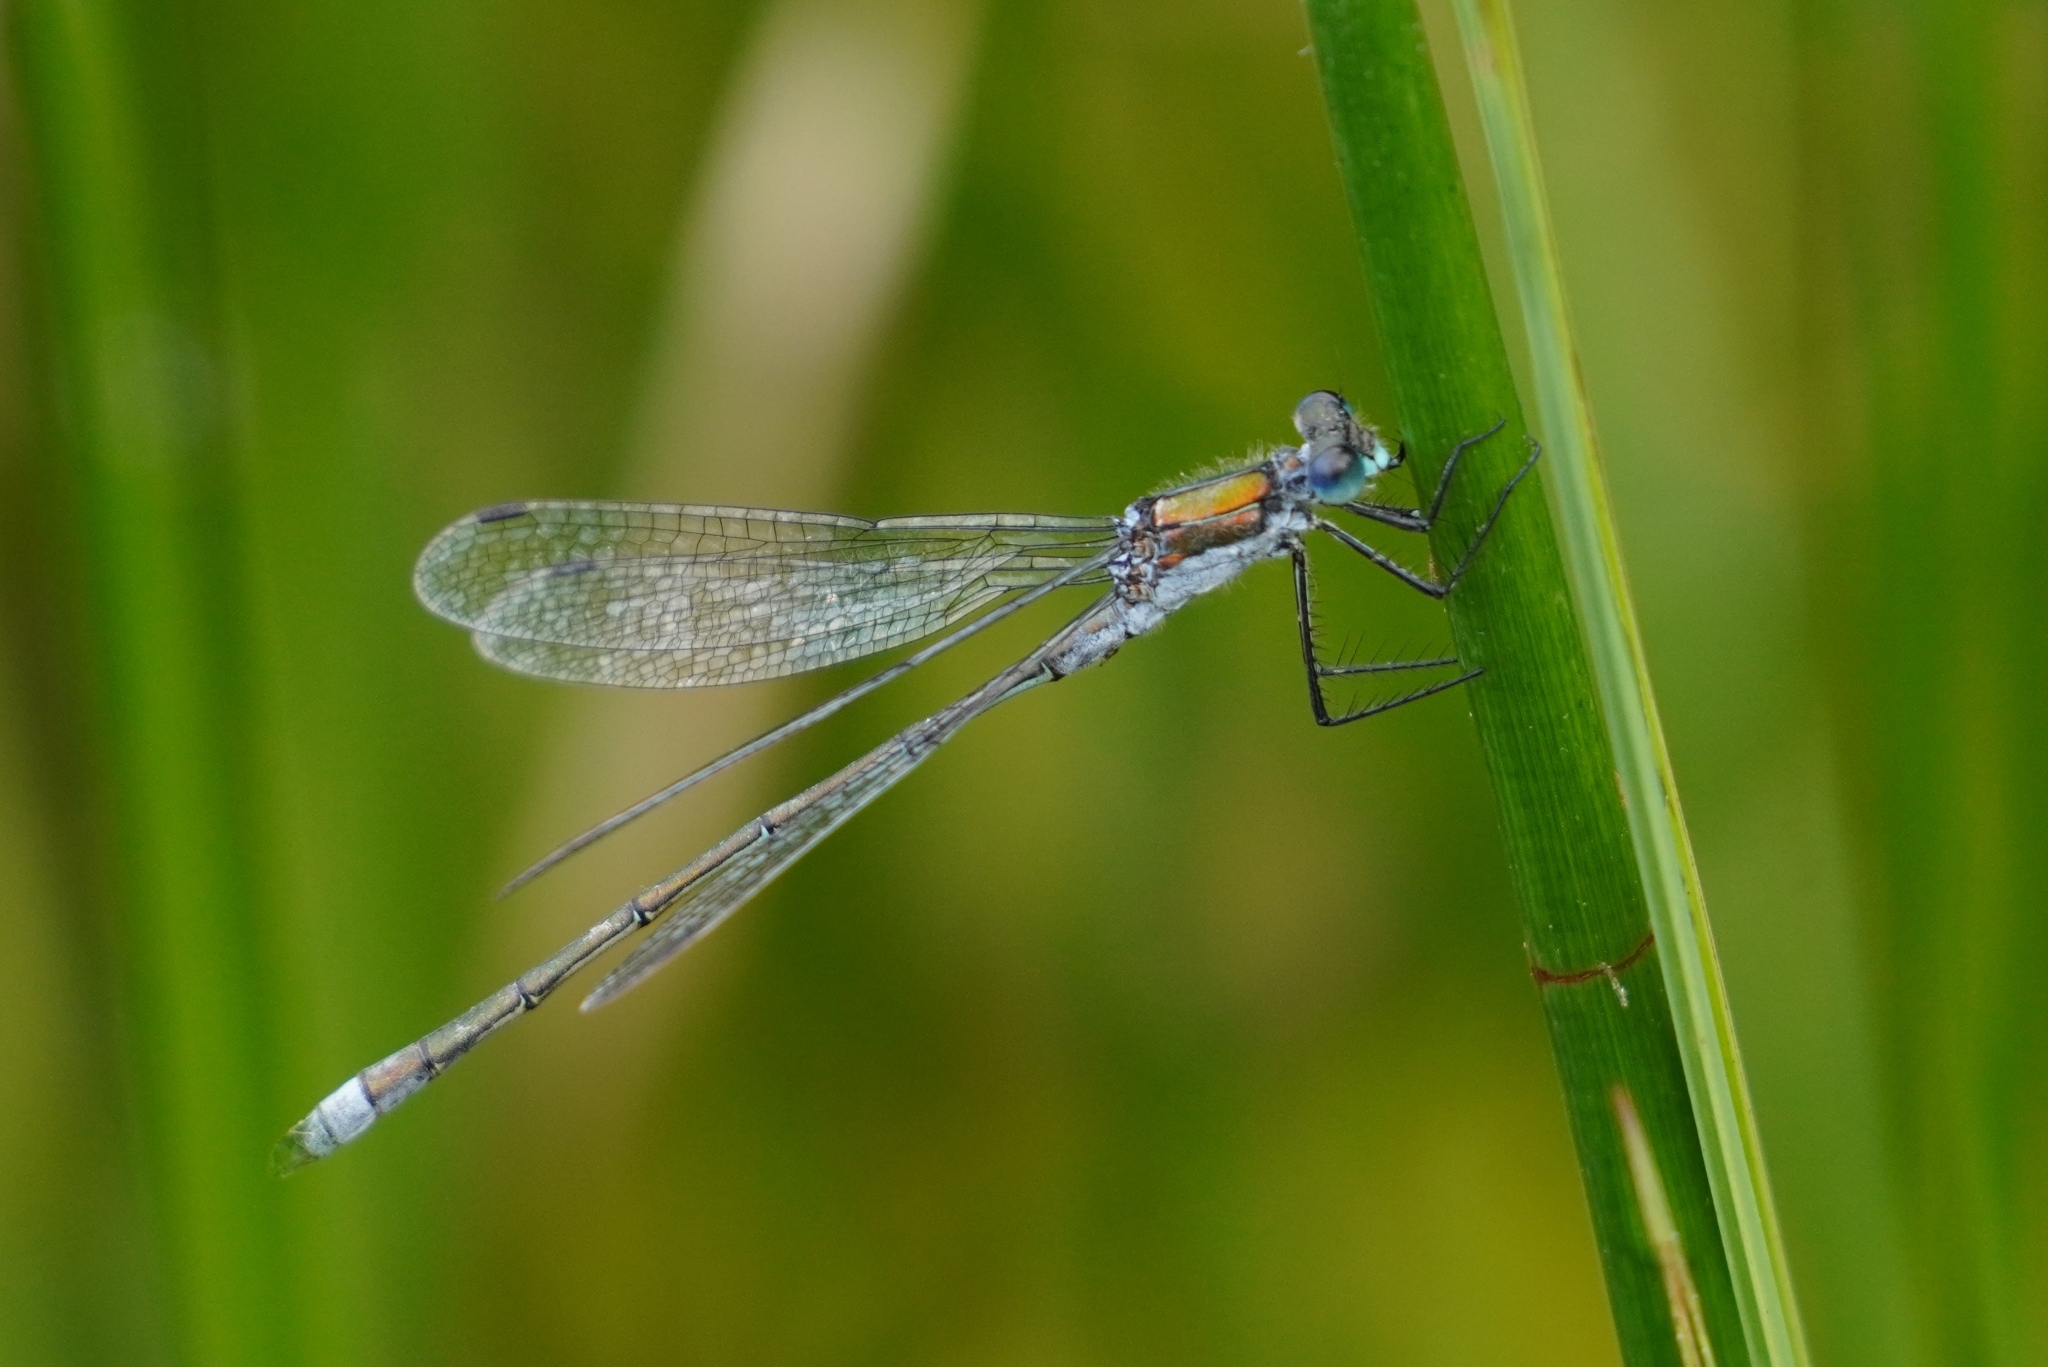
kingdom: Animalia
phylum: Arthropoda
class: Insecta
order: Odonata
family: Lestidae
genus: Lestes
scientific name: Lestes sponsa
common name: Common spreadwing
